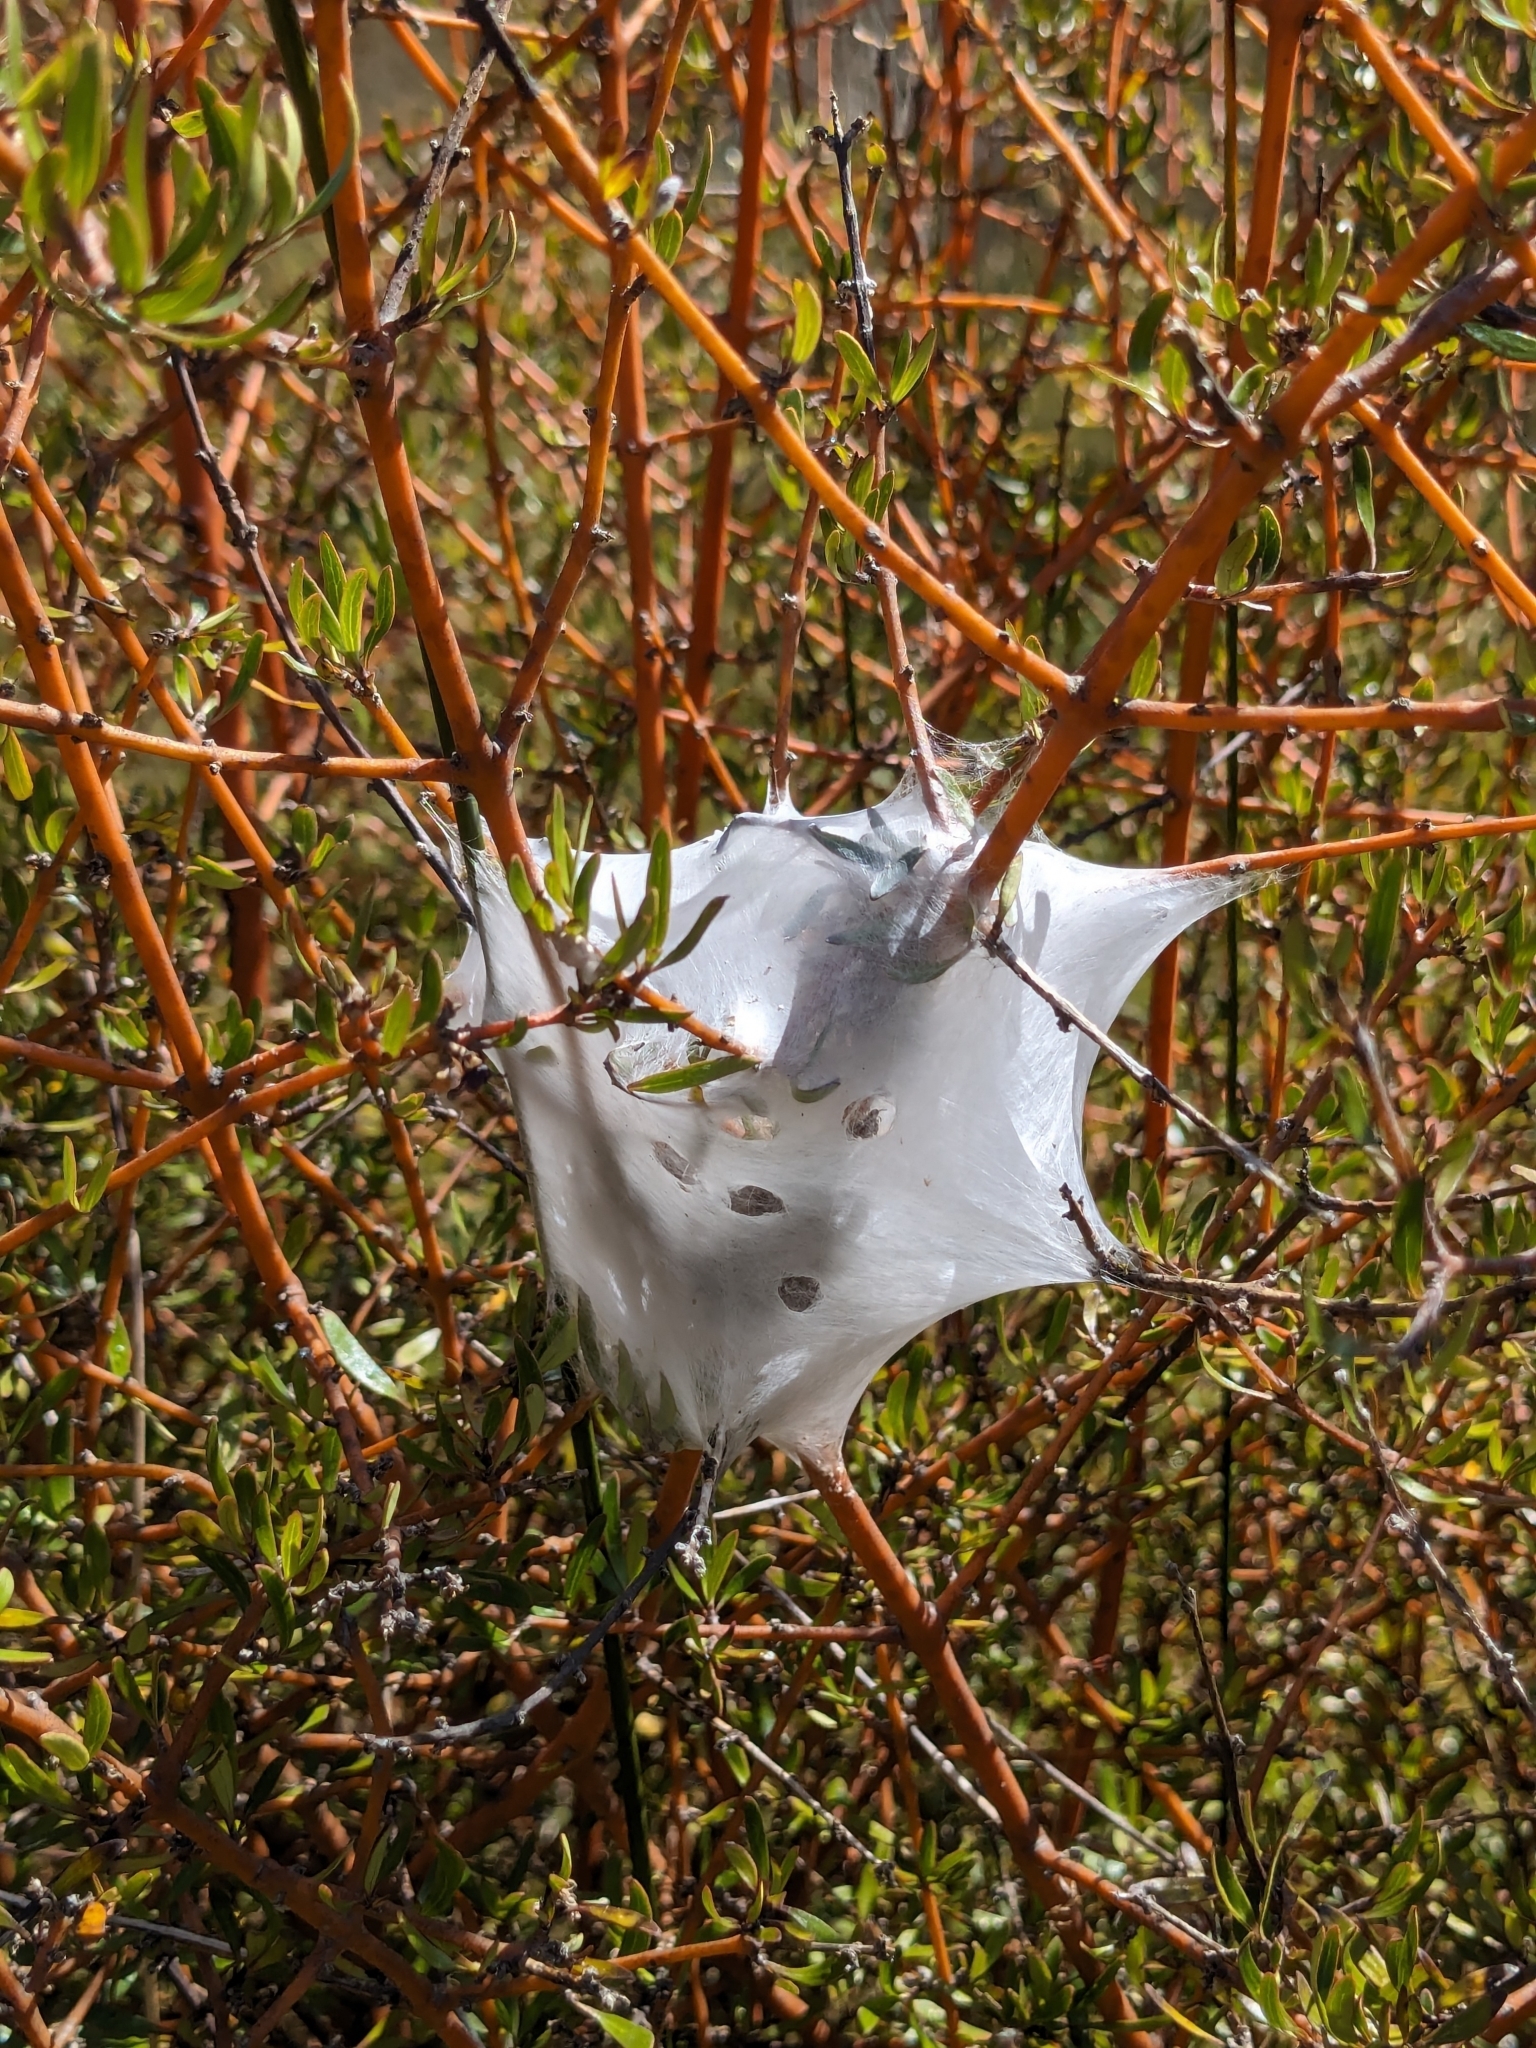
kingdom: Animalia
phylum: Arthropoda
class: Arachnida
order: Araneae
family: Pisauridae
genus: Dolomedes
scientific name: Dolomedes minor
